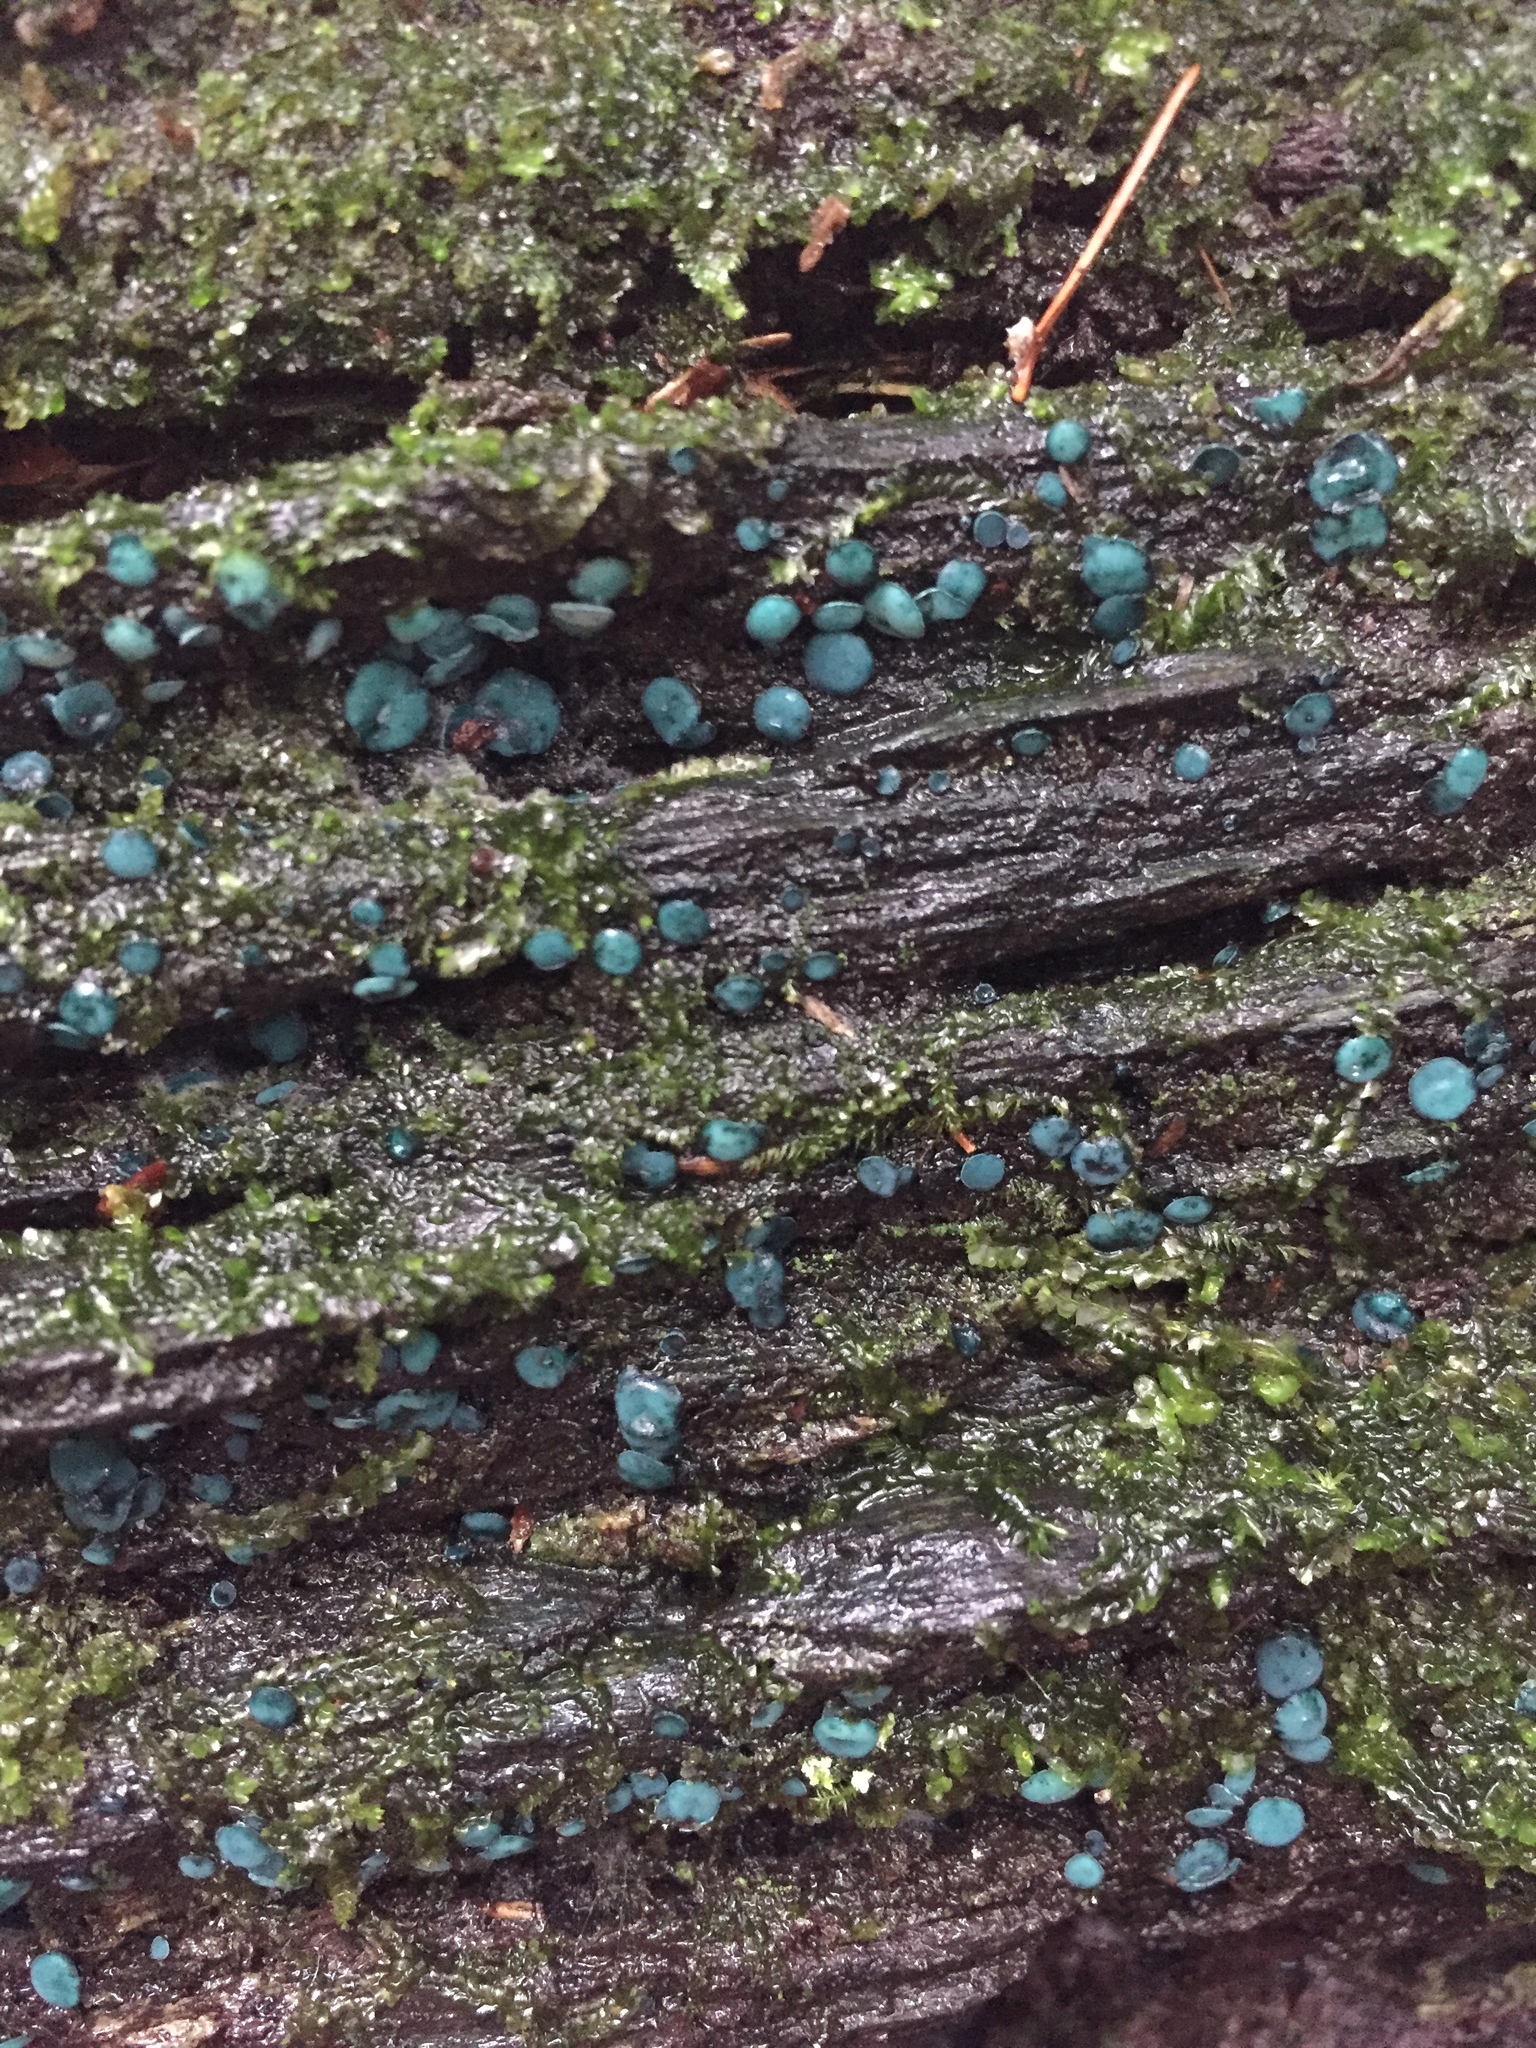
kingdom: Fungi
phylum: Ascomycota
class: Leotiomycetes
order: Helotiales
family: Chlorociboriaceae
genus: Chlorociboria
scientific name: Chlorociboria
